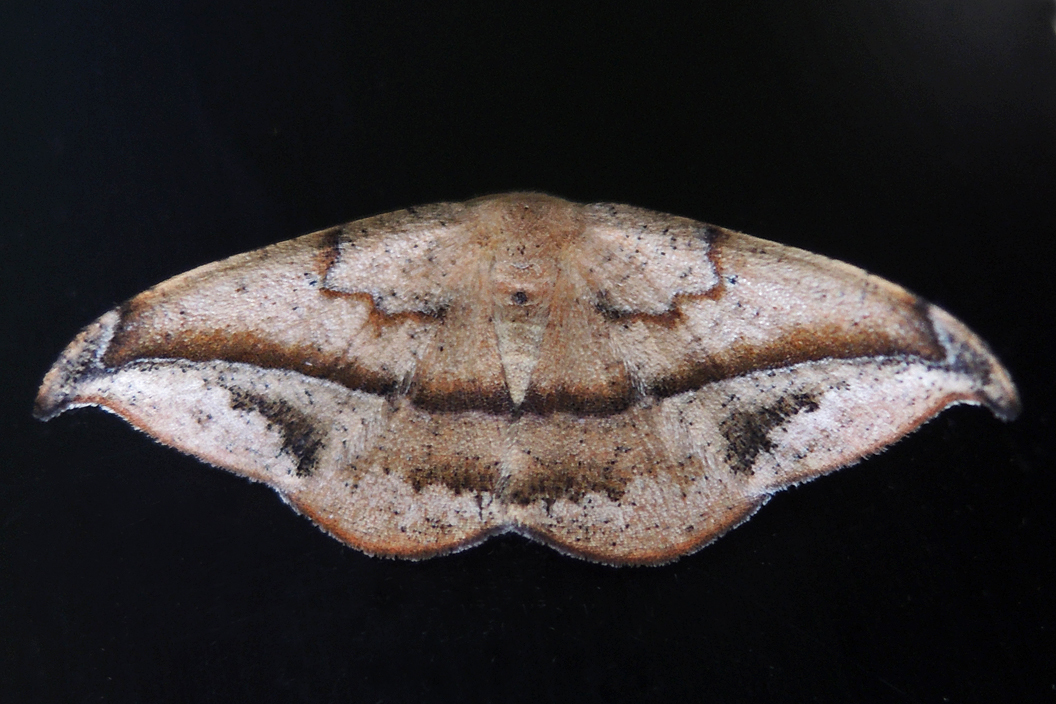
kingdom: Animalia
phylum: Arthropoda
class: Insecta
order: Lepidoptera
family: Geometridae
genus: Patalene
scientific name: Patalene olyzonaria
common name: Juniper geometer moth
